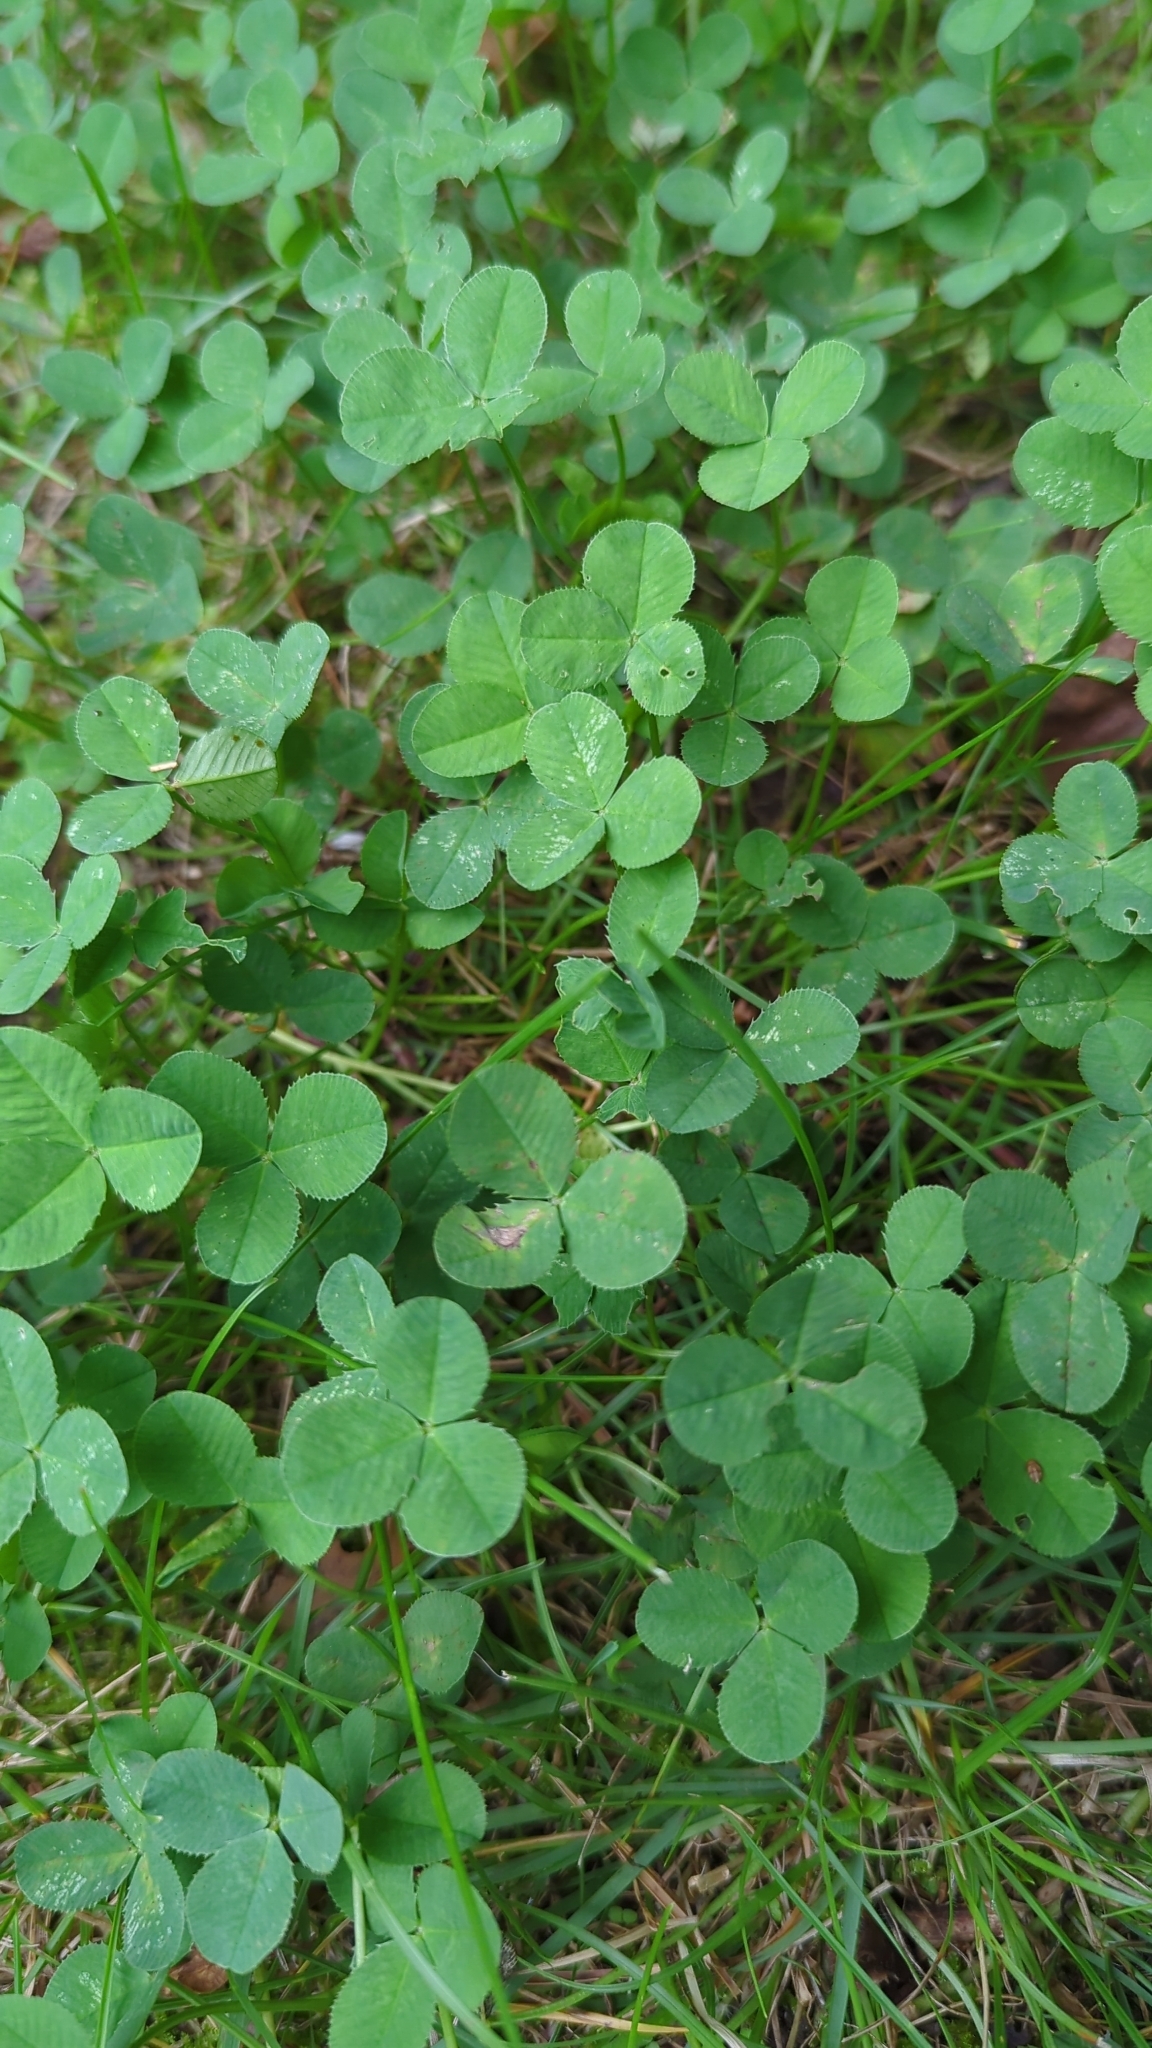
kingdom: Plantae
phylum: Tracheophyta
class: Magnoliopsida
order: Fabales
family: Fabaceae
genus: Trifolium
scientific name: Trifolium repens
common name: White clover
